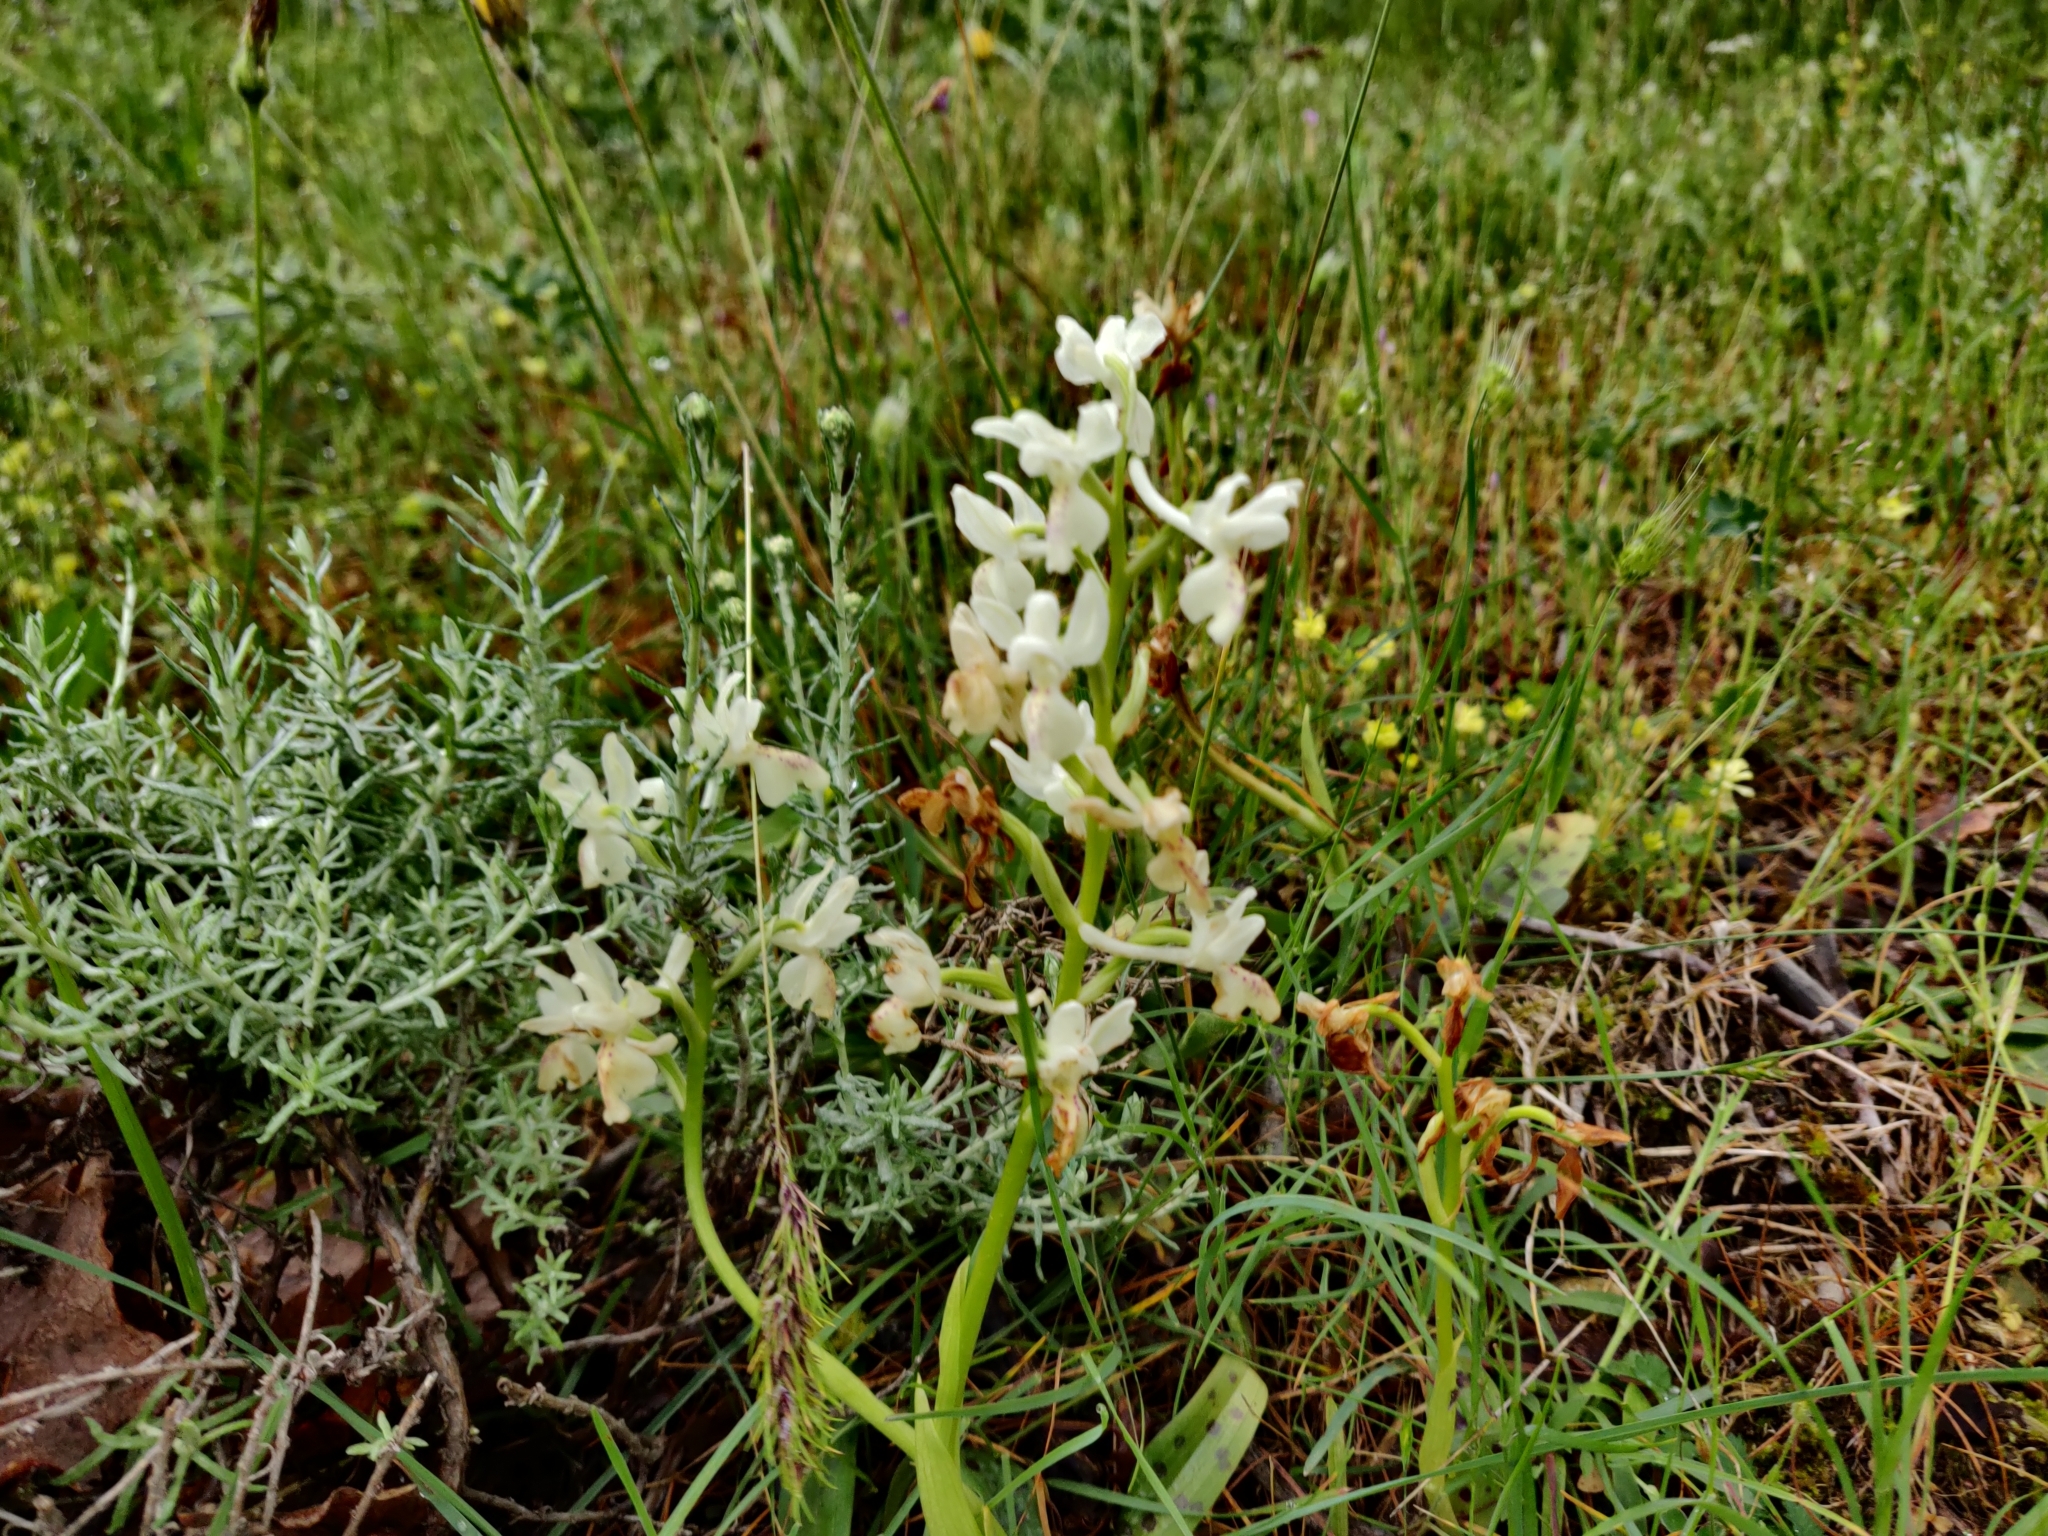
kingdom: Plantae
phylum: Tracheophyta
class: Liliopsida
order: Asparagales
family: Orchidaceae
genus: Orchis
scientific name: Orchis provincialis
